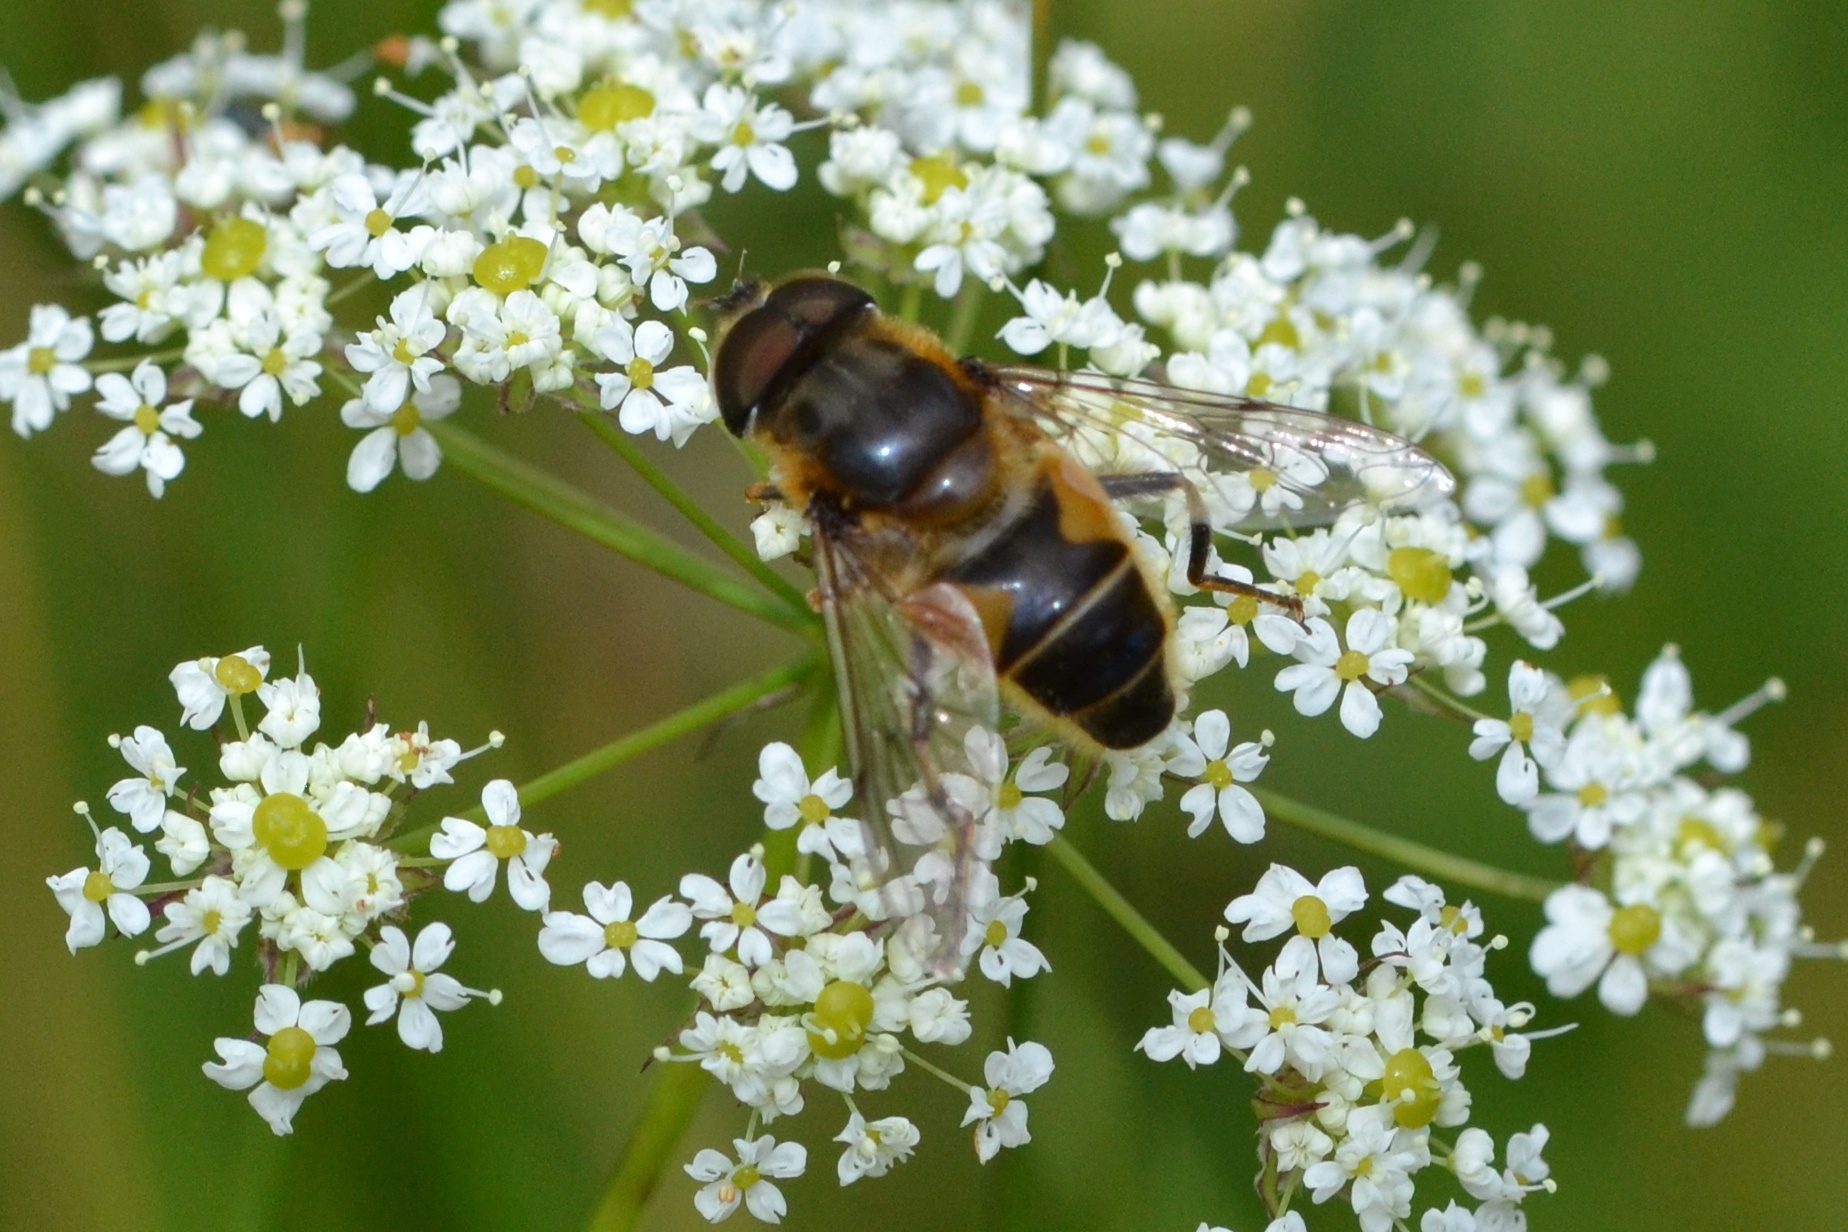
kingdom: Animalia
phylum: Arthropoda
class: Insecta
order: Diptera
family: Syrphidae
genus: Eristalis
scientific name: Eristalis pertinax
